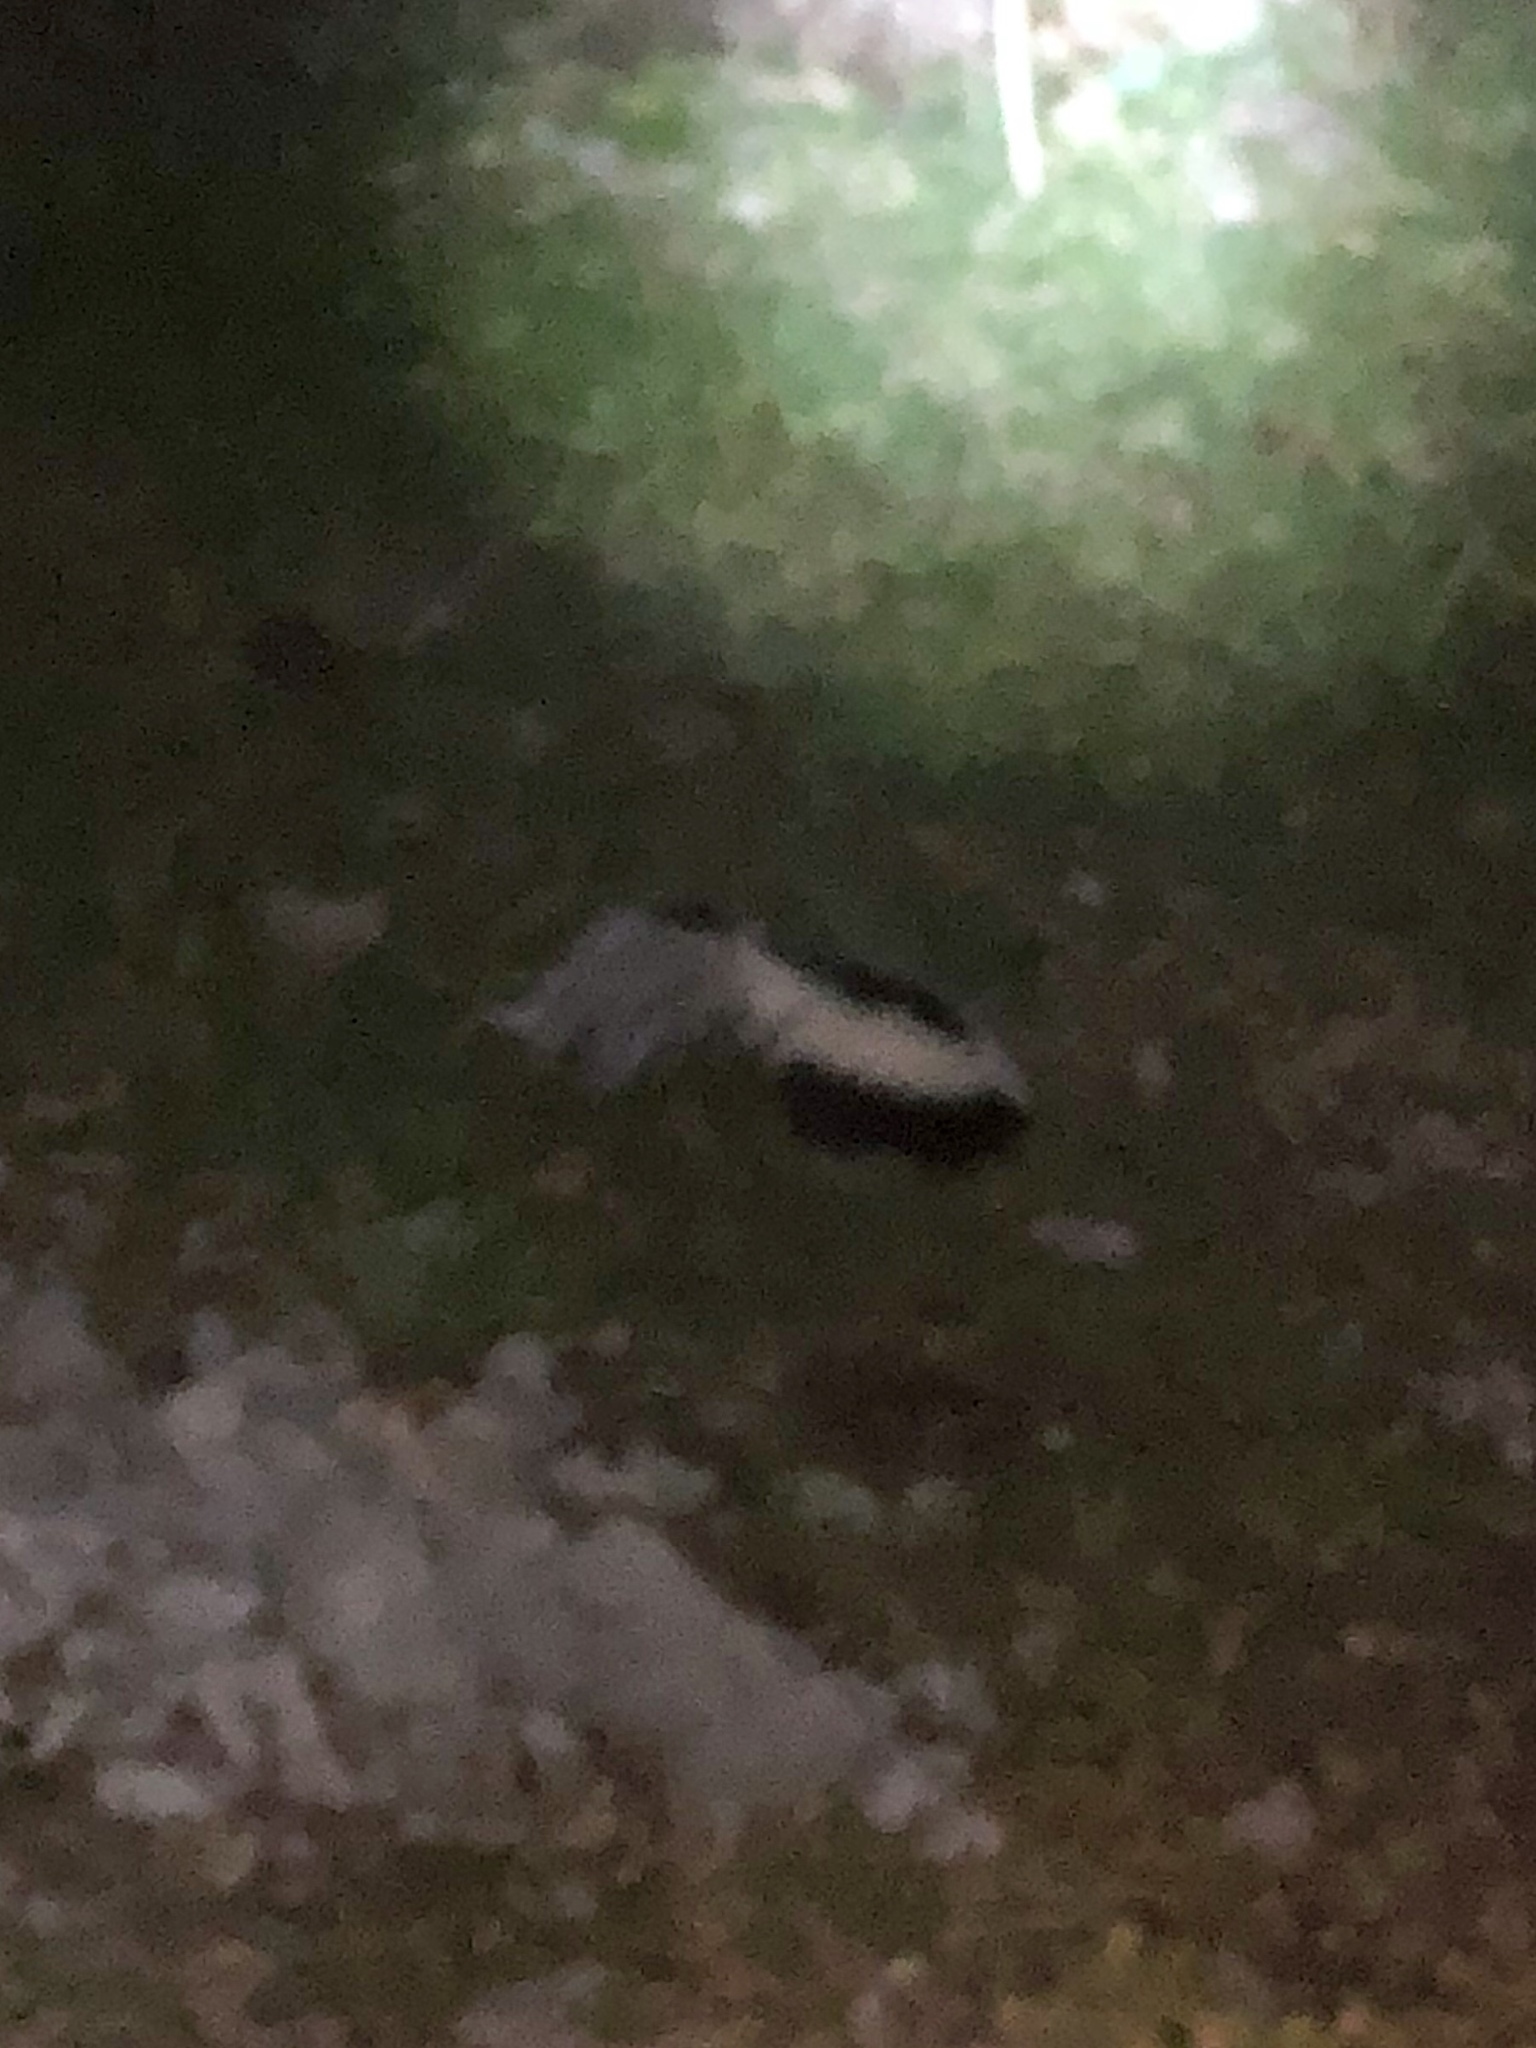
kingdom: Animalia
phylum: Chordata
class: Mammalia
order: Carnivora
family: Mephitidae
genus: Mephitis
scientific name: Mephitis mephitis
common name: Striped skunk
